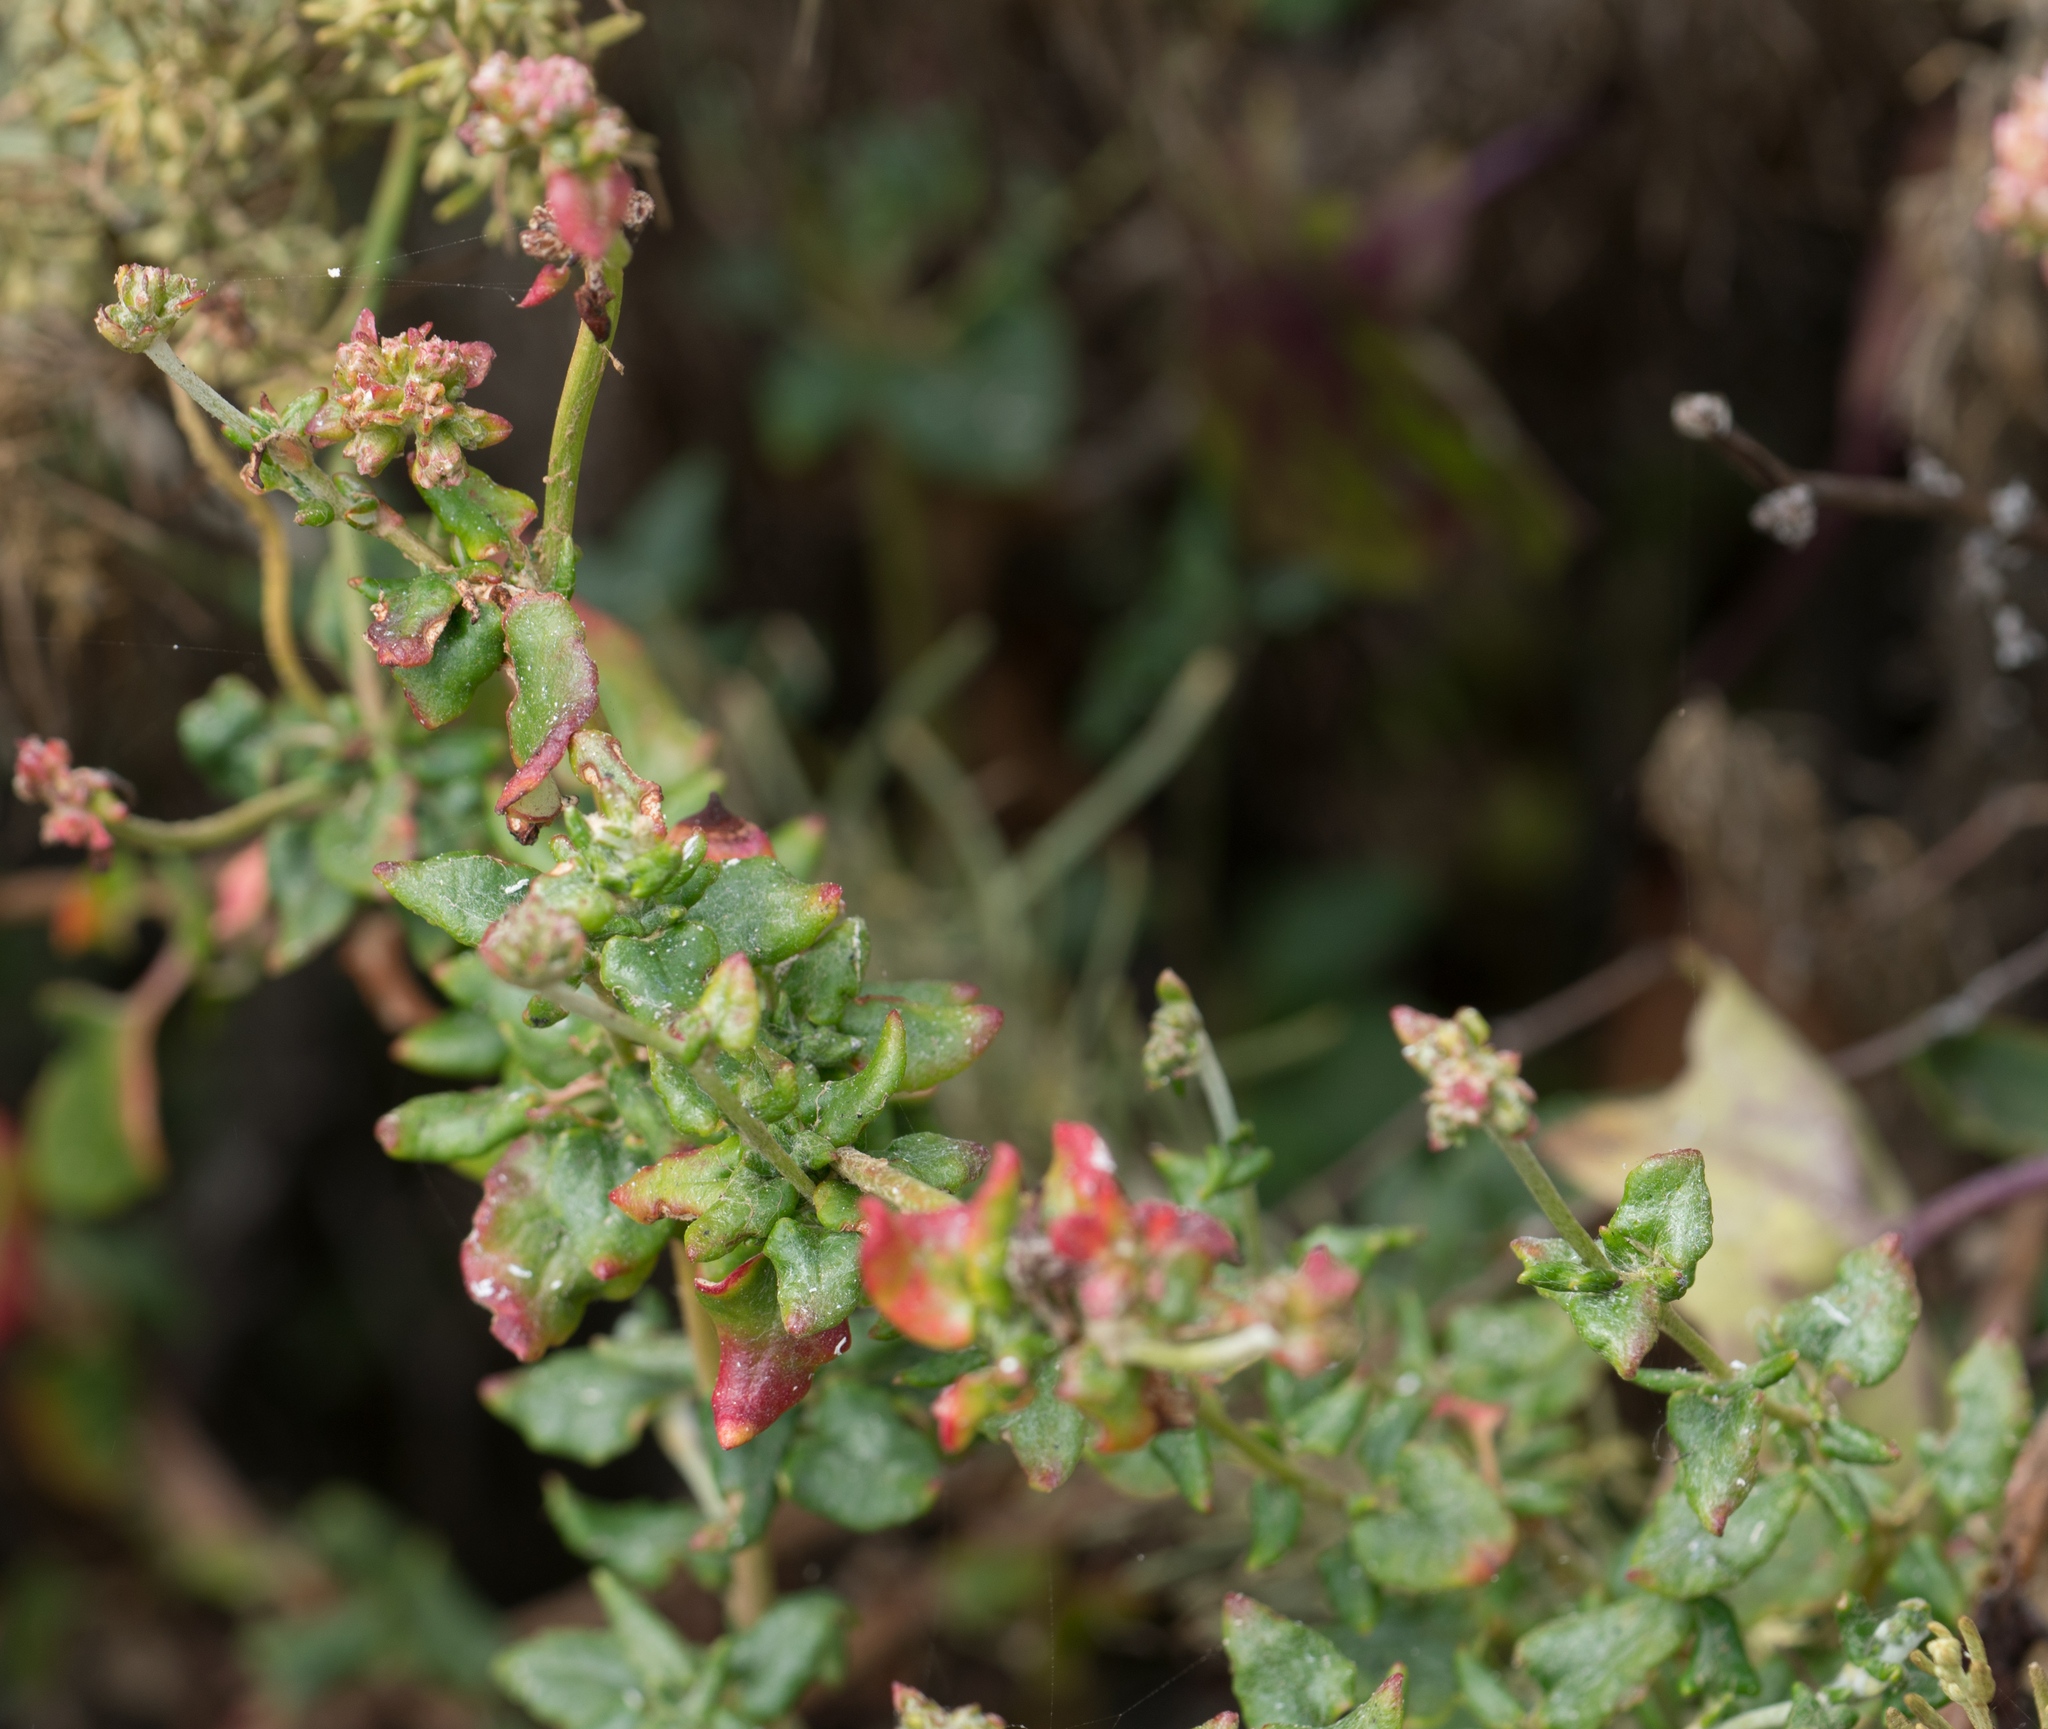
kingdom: Plantae
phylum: Tracheophyta
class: Magnoliopsida
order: Caryophyllales
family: Polygonaceae
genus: Eriogonum
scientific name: Eriogonum parvifolium
